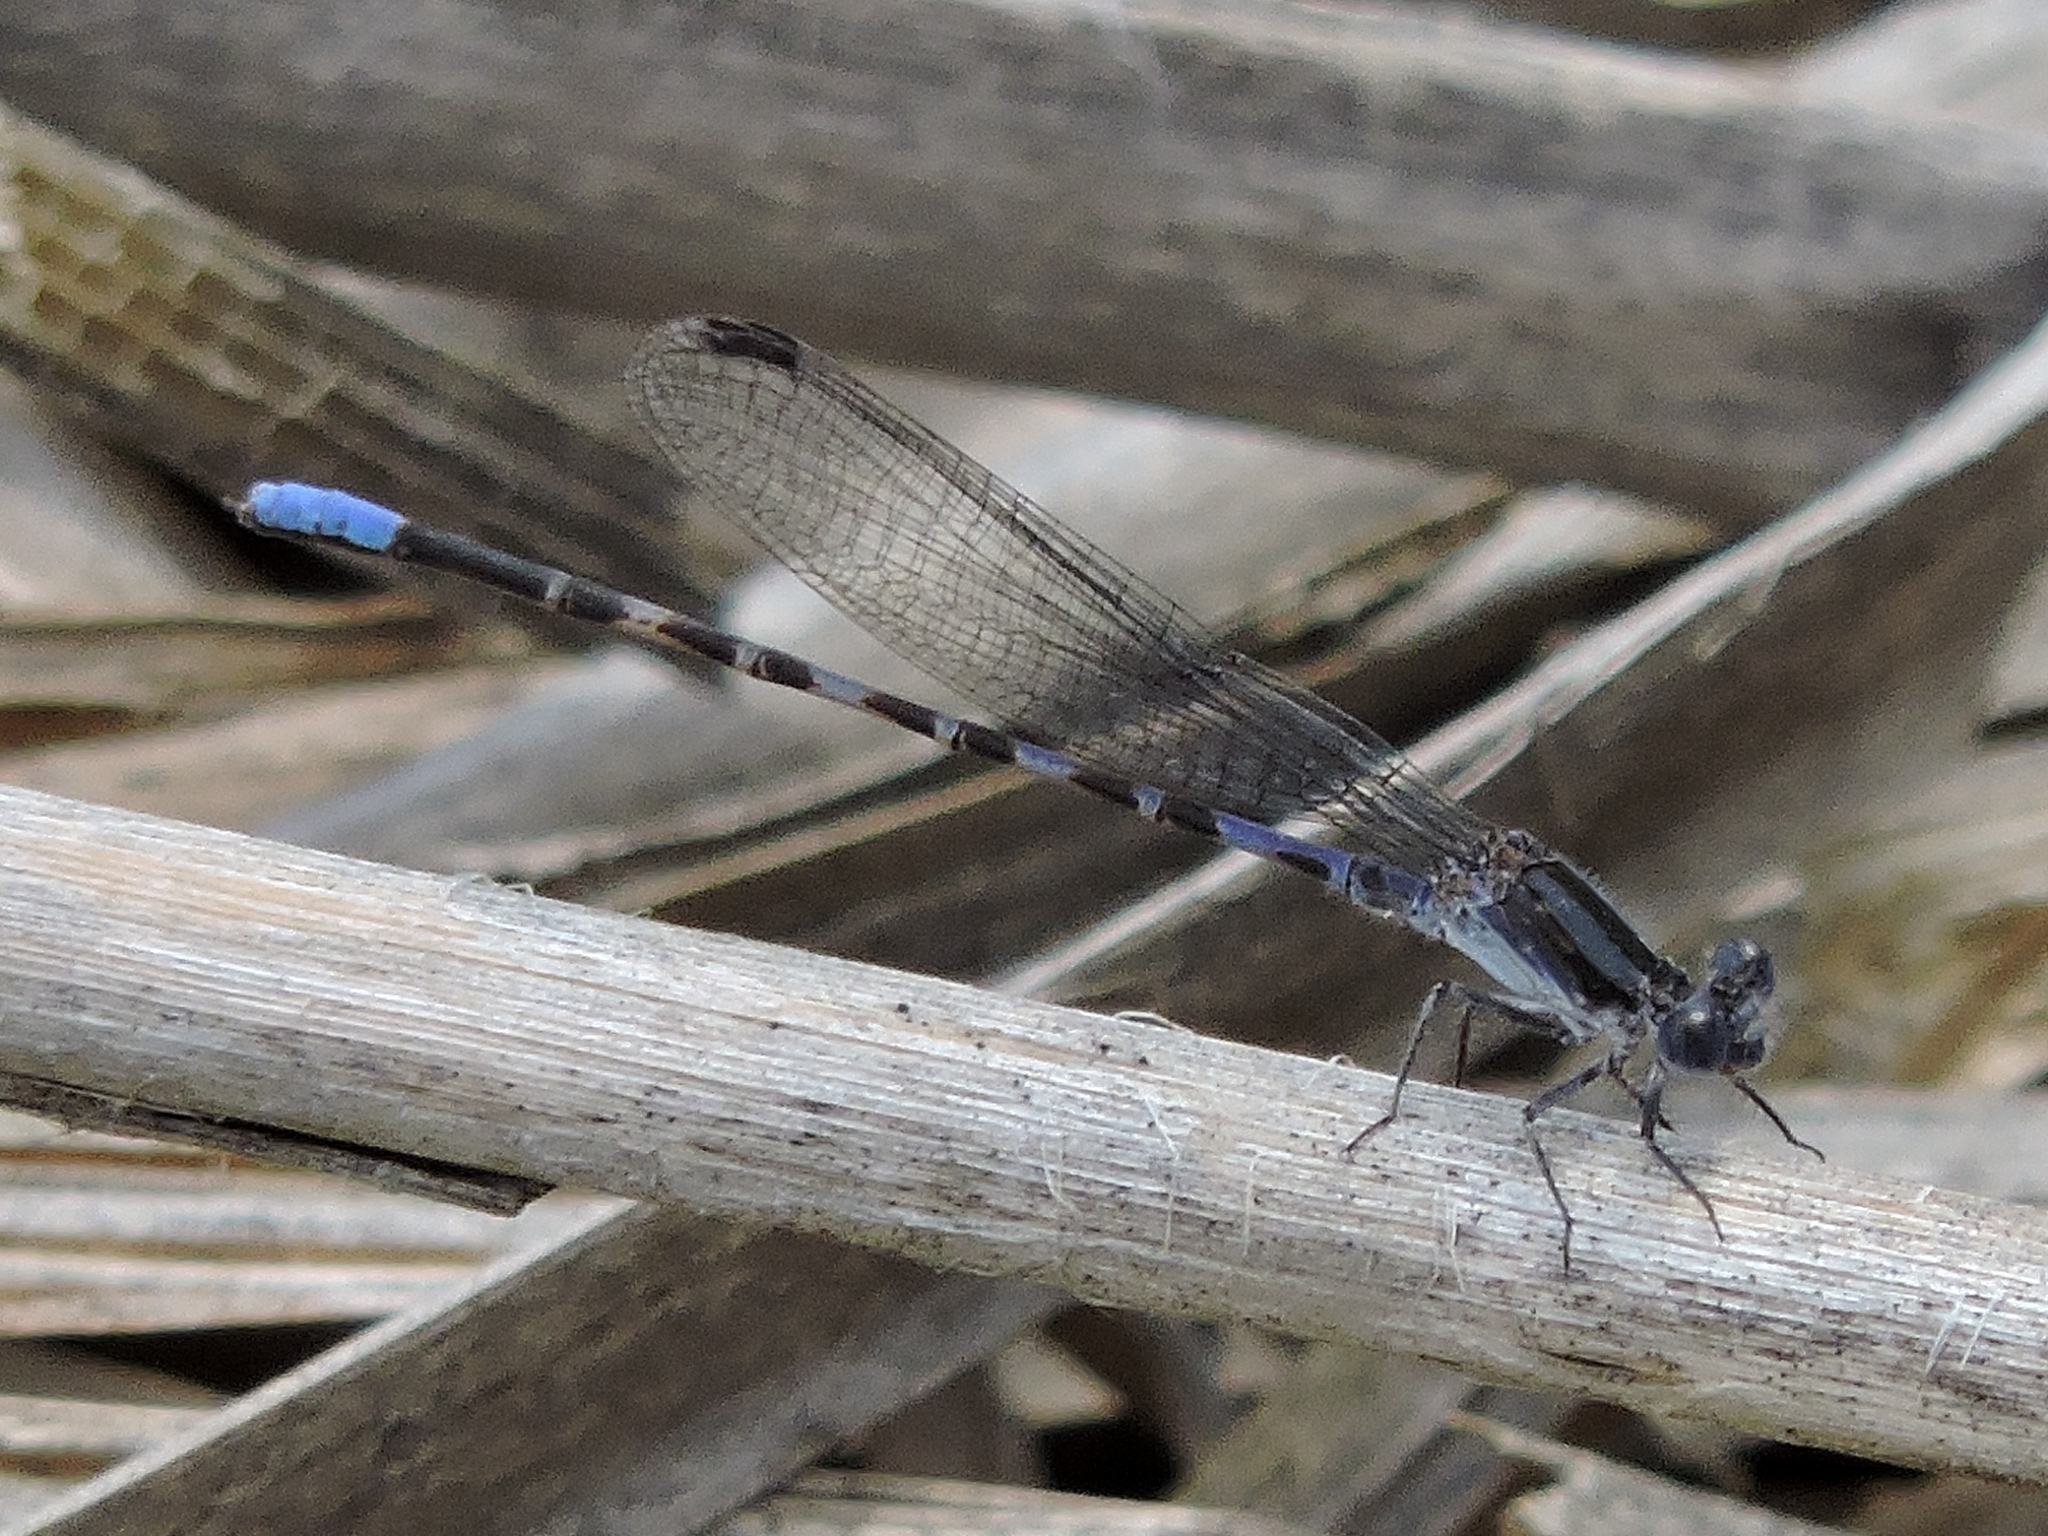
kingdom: Animalia
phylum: Arthropoda
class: Insecta
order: Odonata
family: Coenagrionidae
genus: Argia
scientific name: Argia immunda
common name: Kiowa dancer
